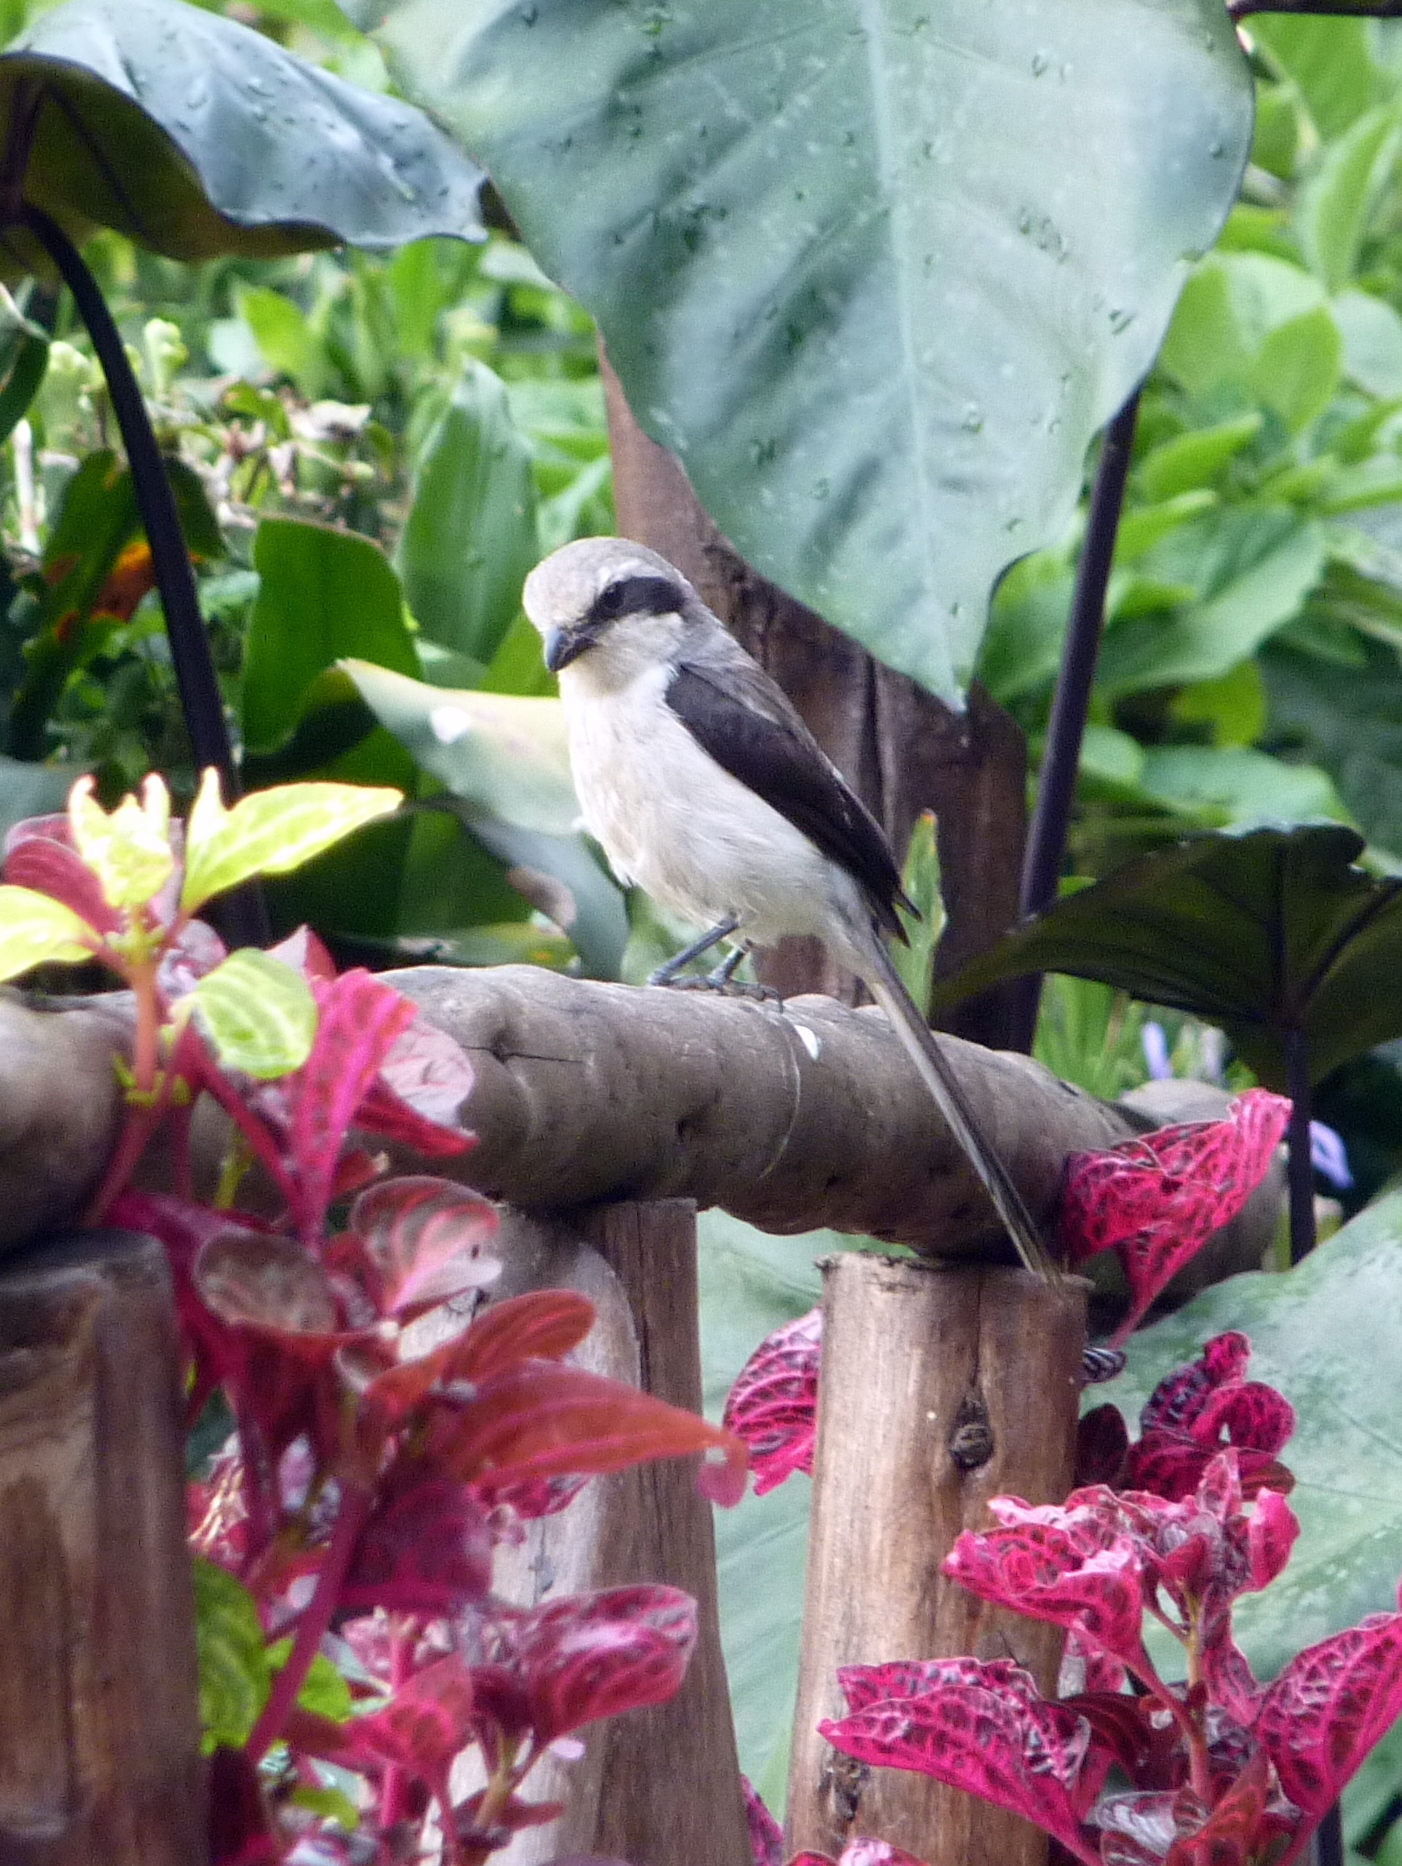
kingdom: Animalia
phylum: Chordata
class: Aves
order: Passeriformes
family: Laniidae
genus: Lanius
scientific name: Lanius mackinnoni
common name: Mackinnon's shrike
